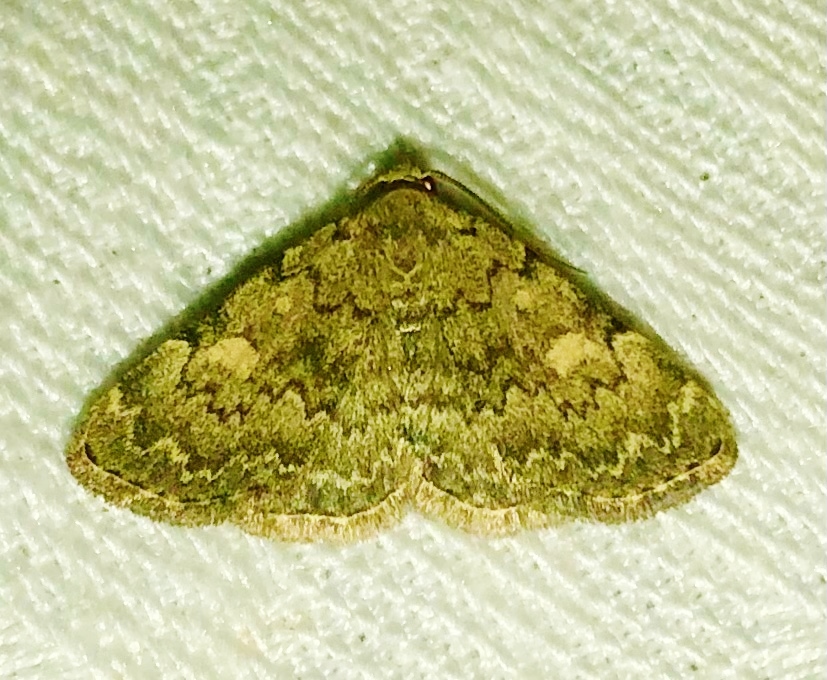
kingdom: Animalia
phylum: Arthropoda
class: Insecta
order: Lepidoptera
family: Erebidae
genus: Idia
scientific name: Idia aemula
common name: Common idia moth
